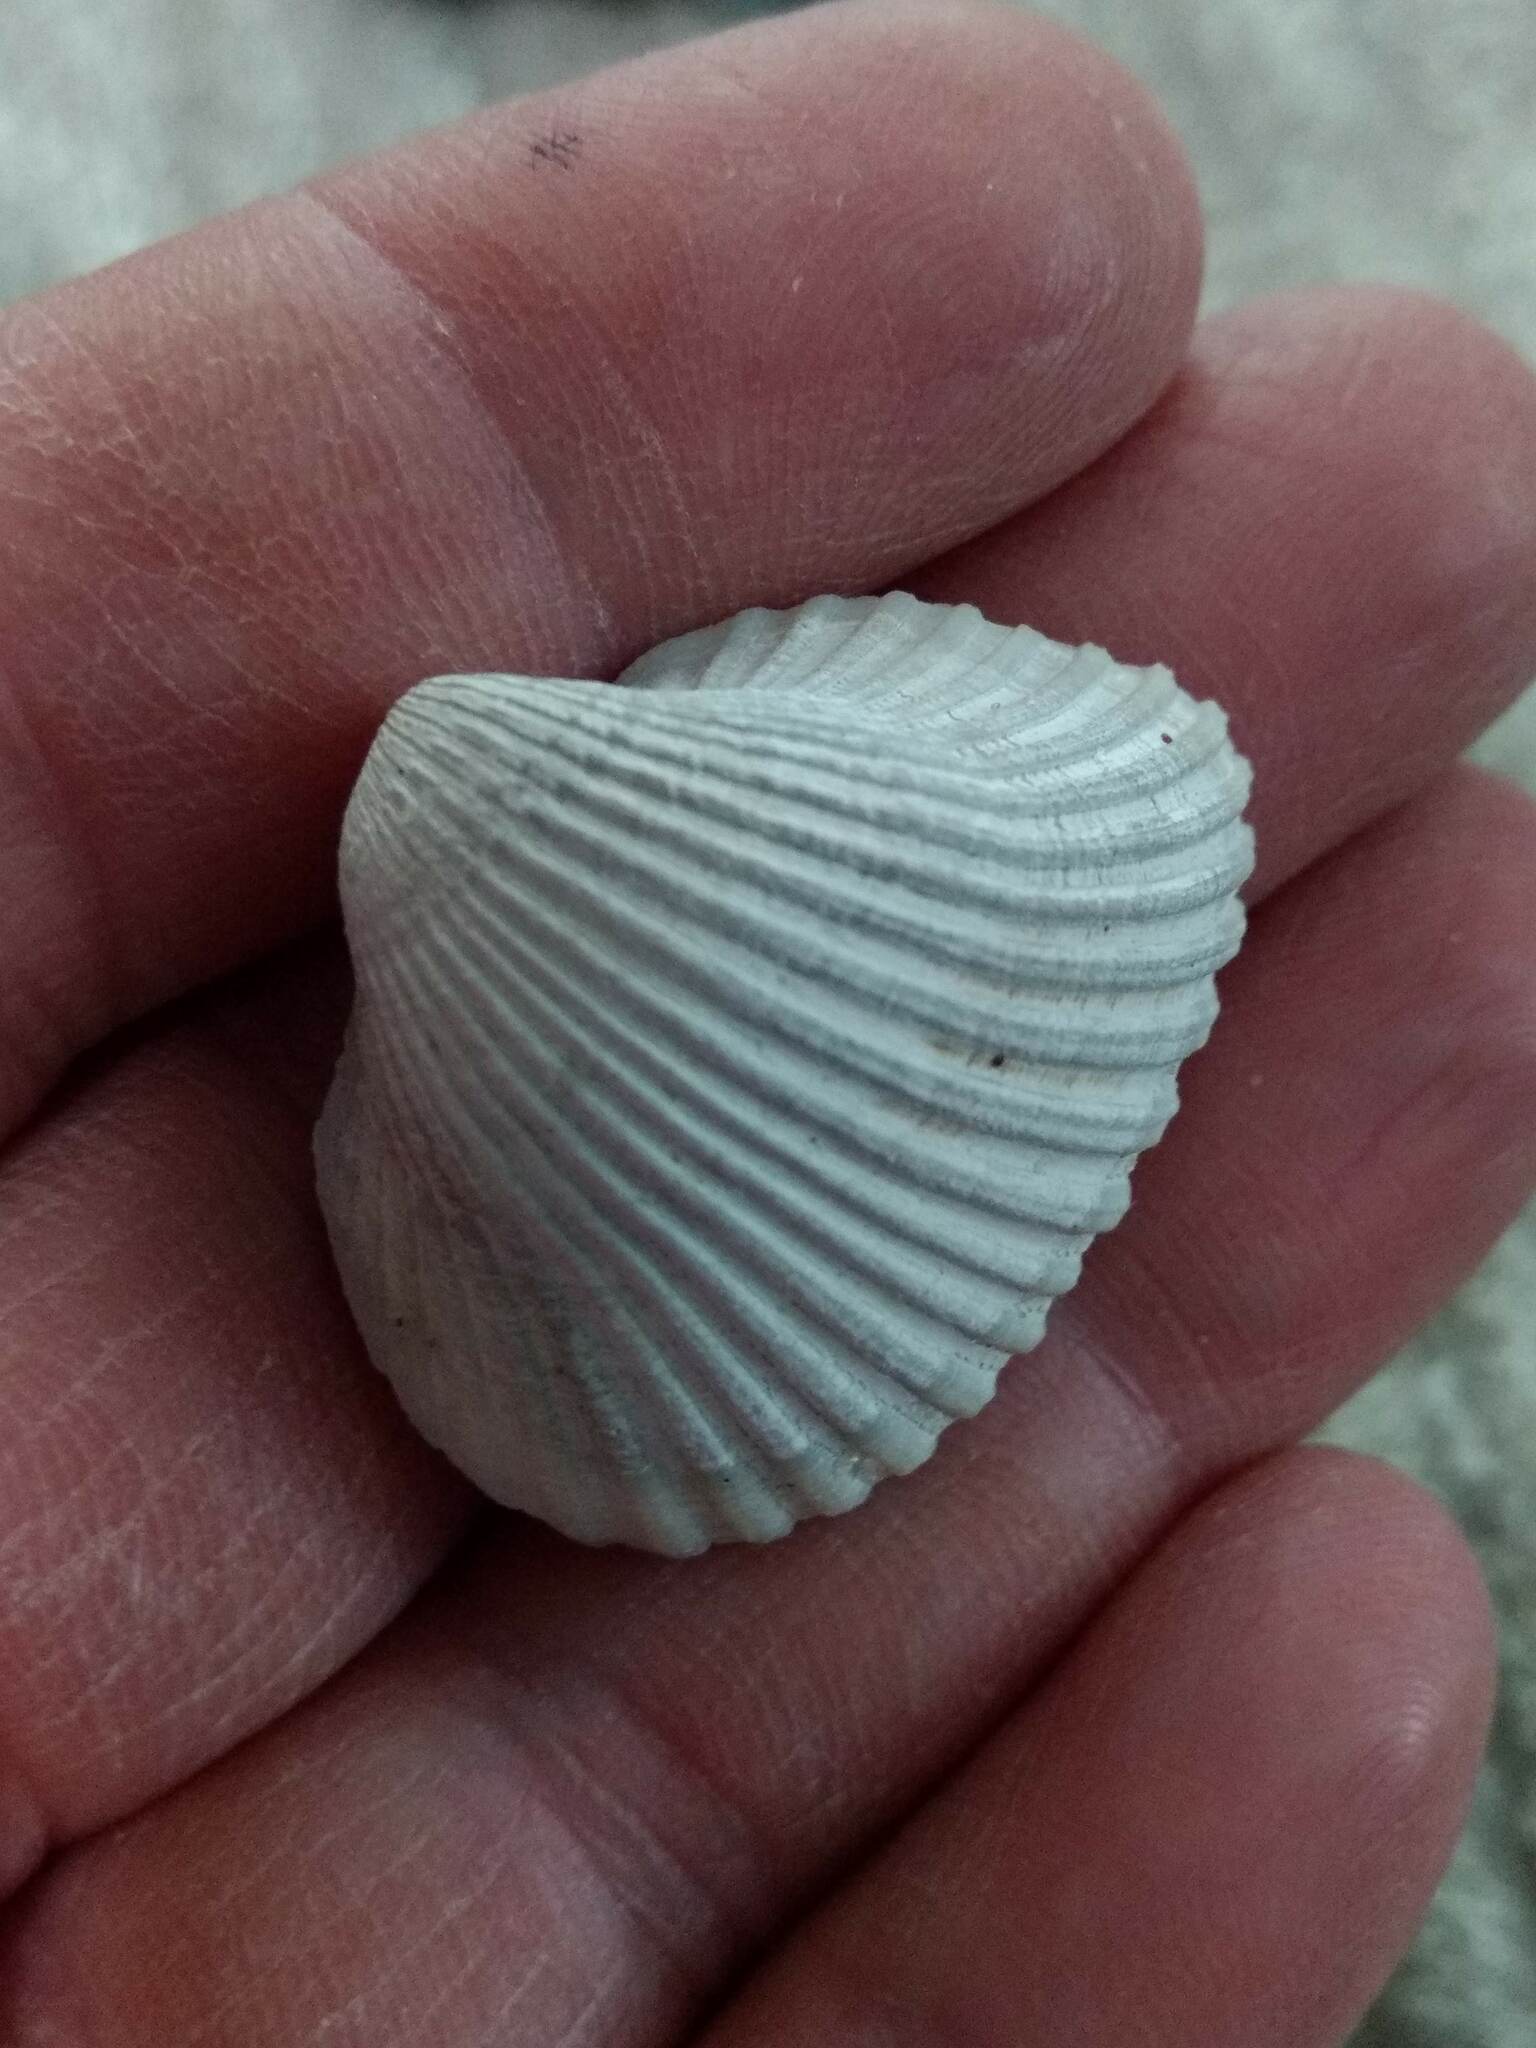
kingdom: Animalia
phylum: Mollusca
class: Bivalvia
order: Arcida
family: Noetiidae
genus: Noetia
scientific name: Noetia ponderosa
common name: Ponderous ark
